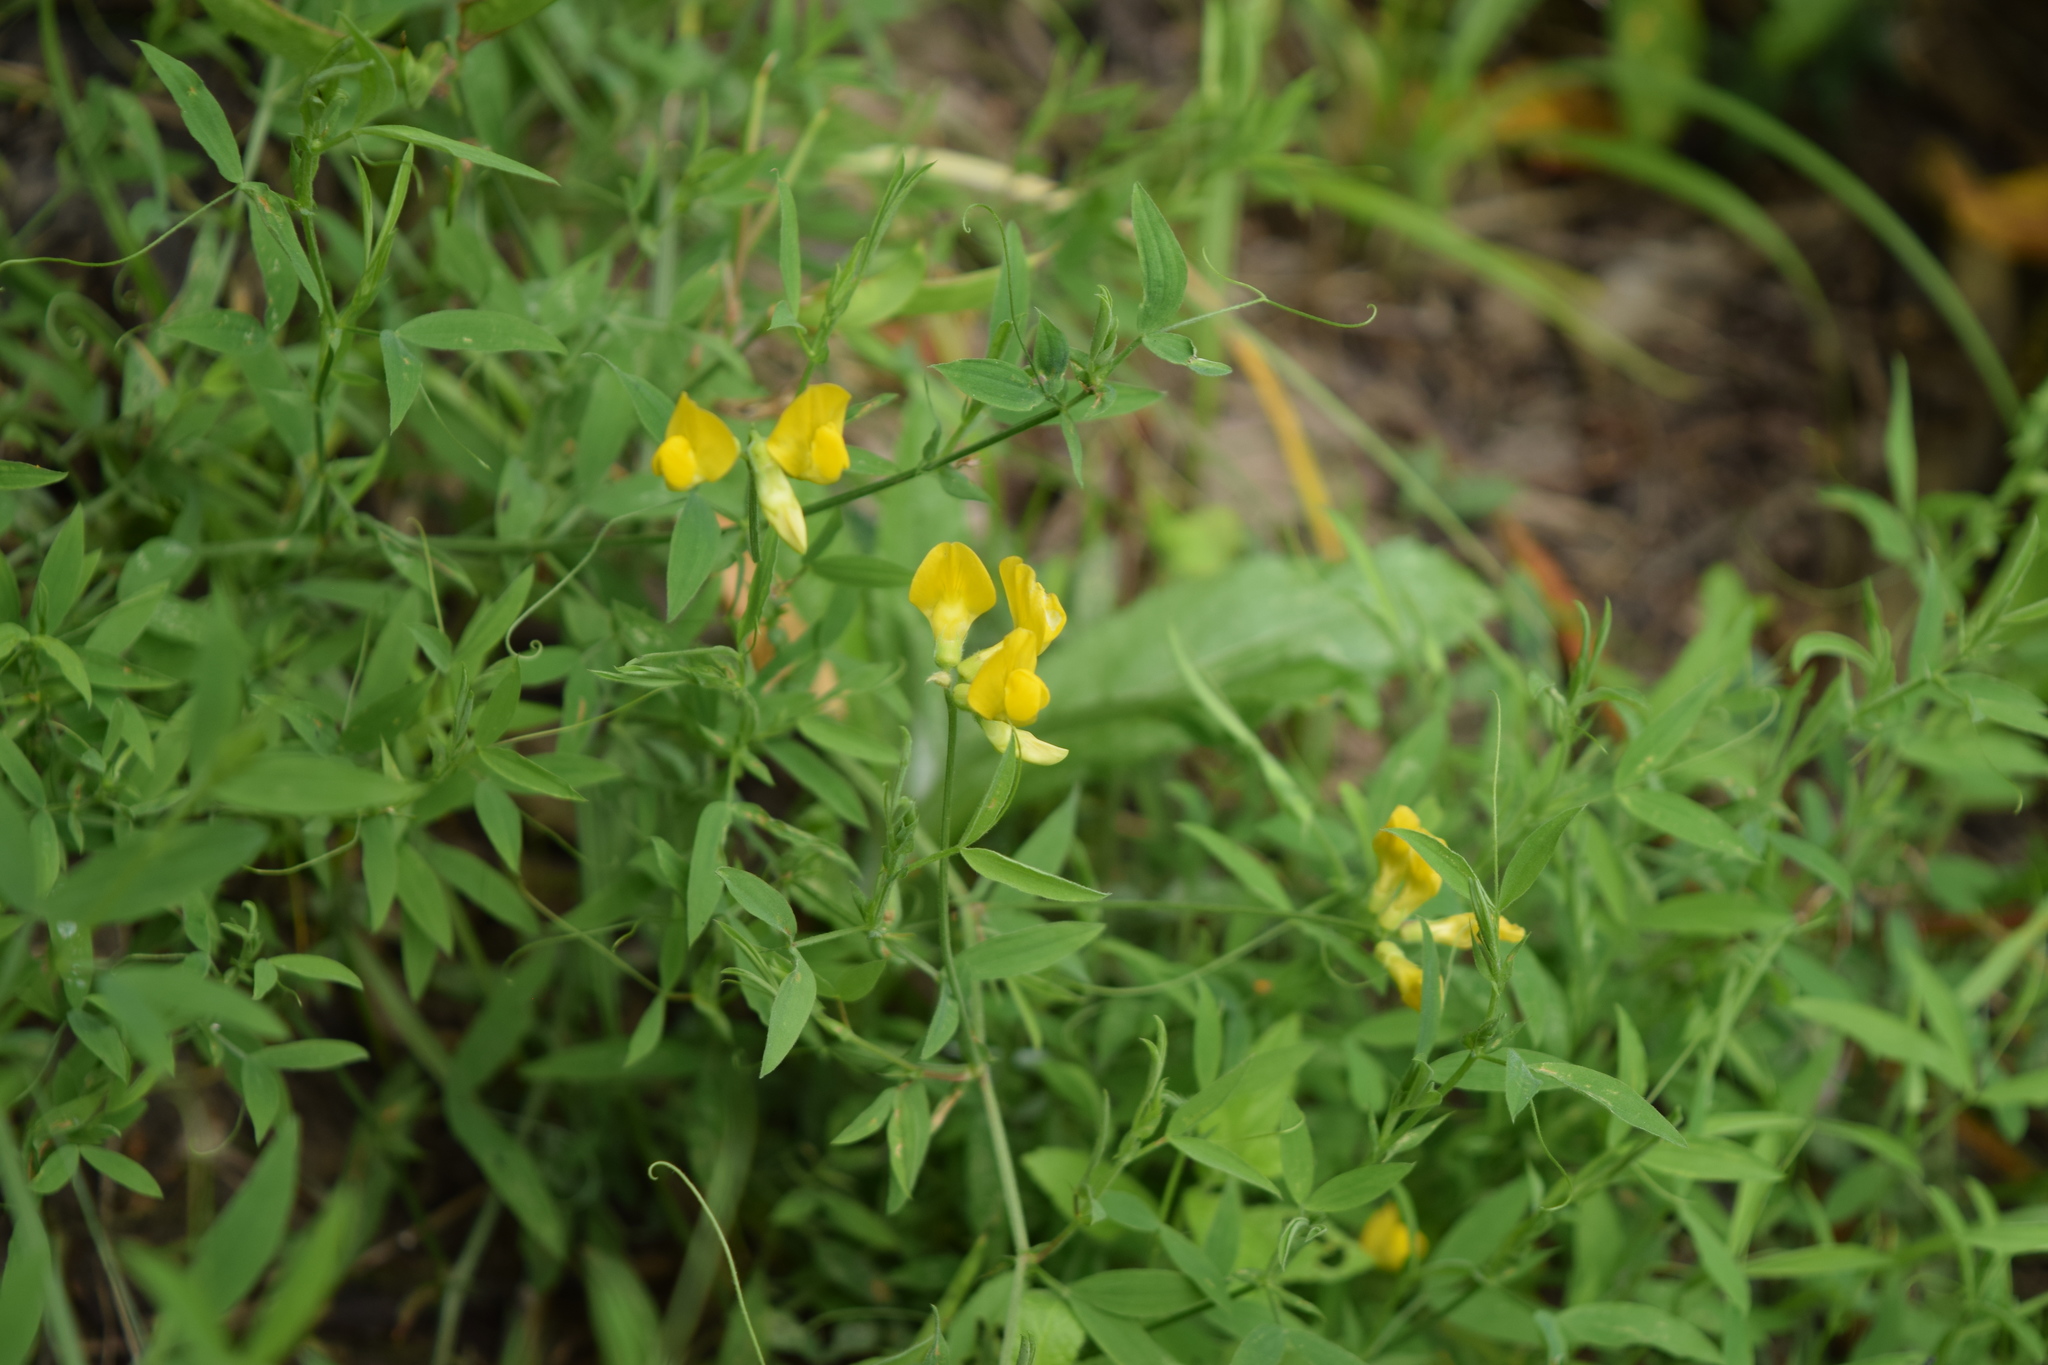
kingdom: Plantae
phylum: Tracheophyta
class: Magnoliopsida
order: Fabales
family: Fabaceae
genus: Lathyrus
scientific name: Lathyrus pratensis
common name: Meadow vetchling
